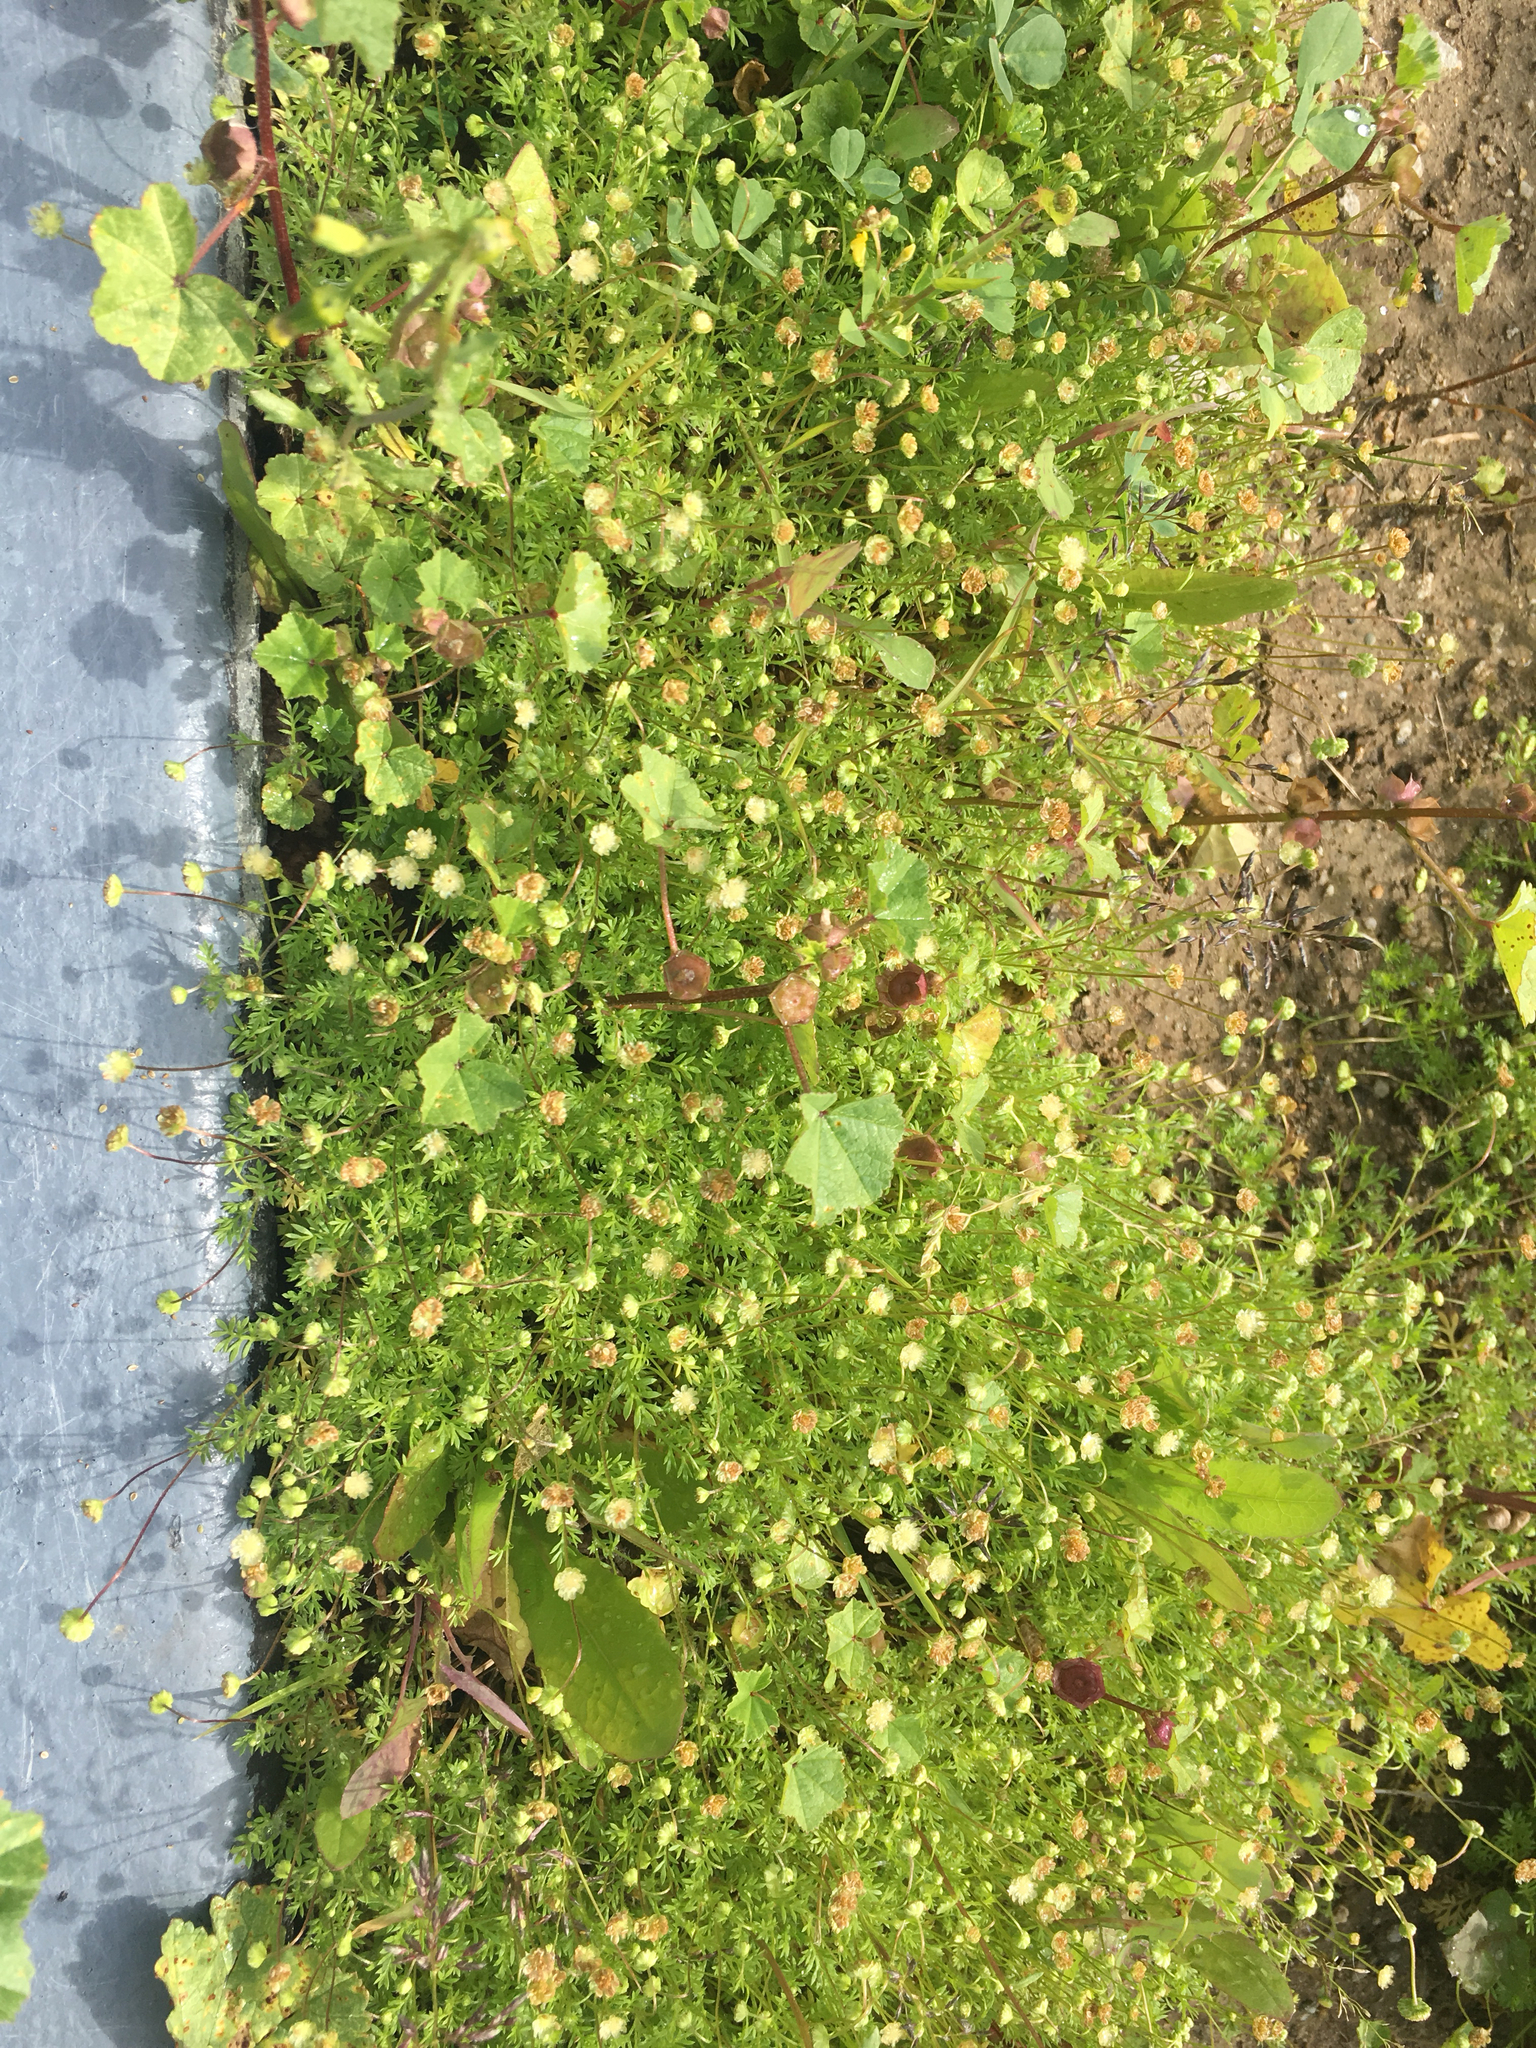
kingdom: Plantae
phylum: Tracheophyta
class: Magnoliopsida
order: Asterales
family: Asteraceae
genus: Cotula
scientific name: Cotula australis
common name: Australian waterbuttons
